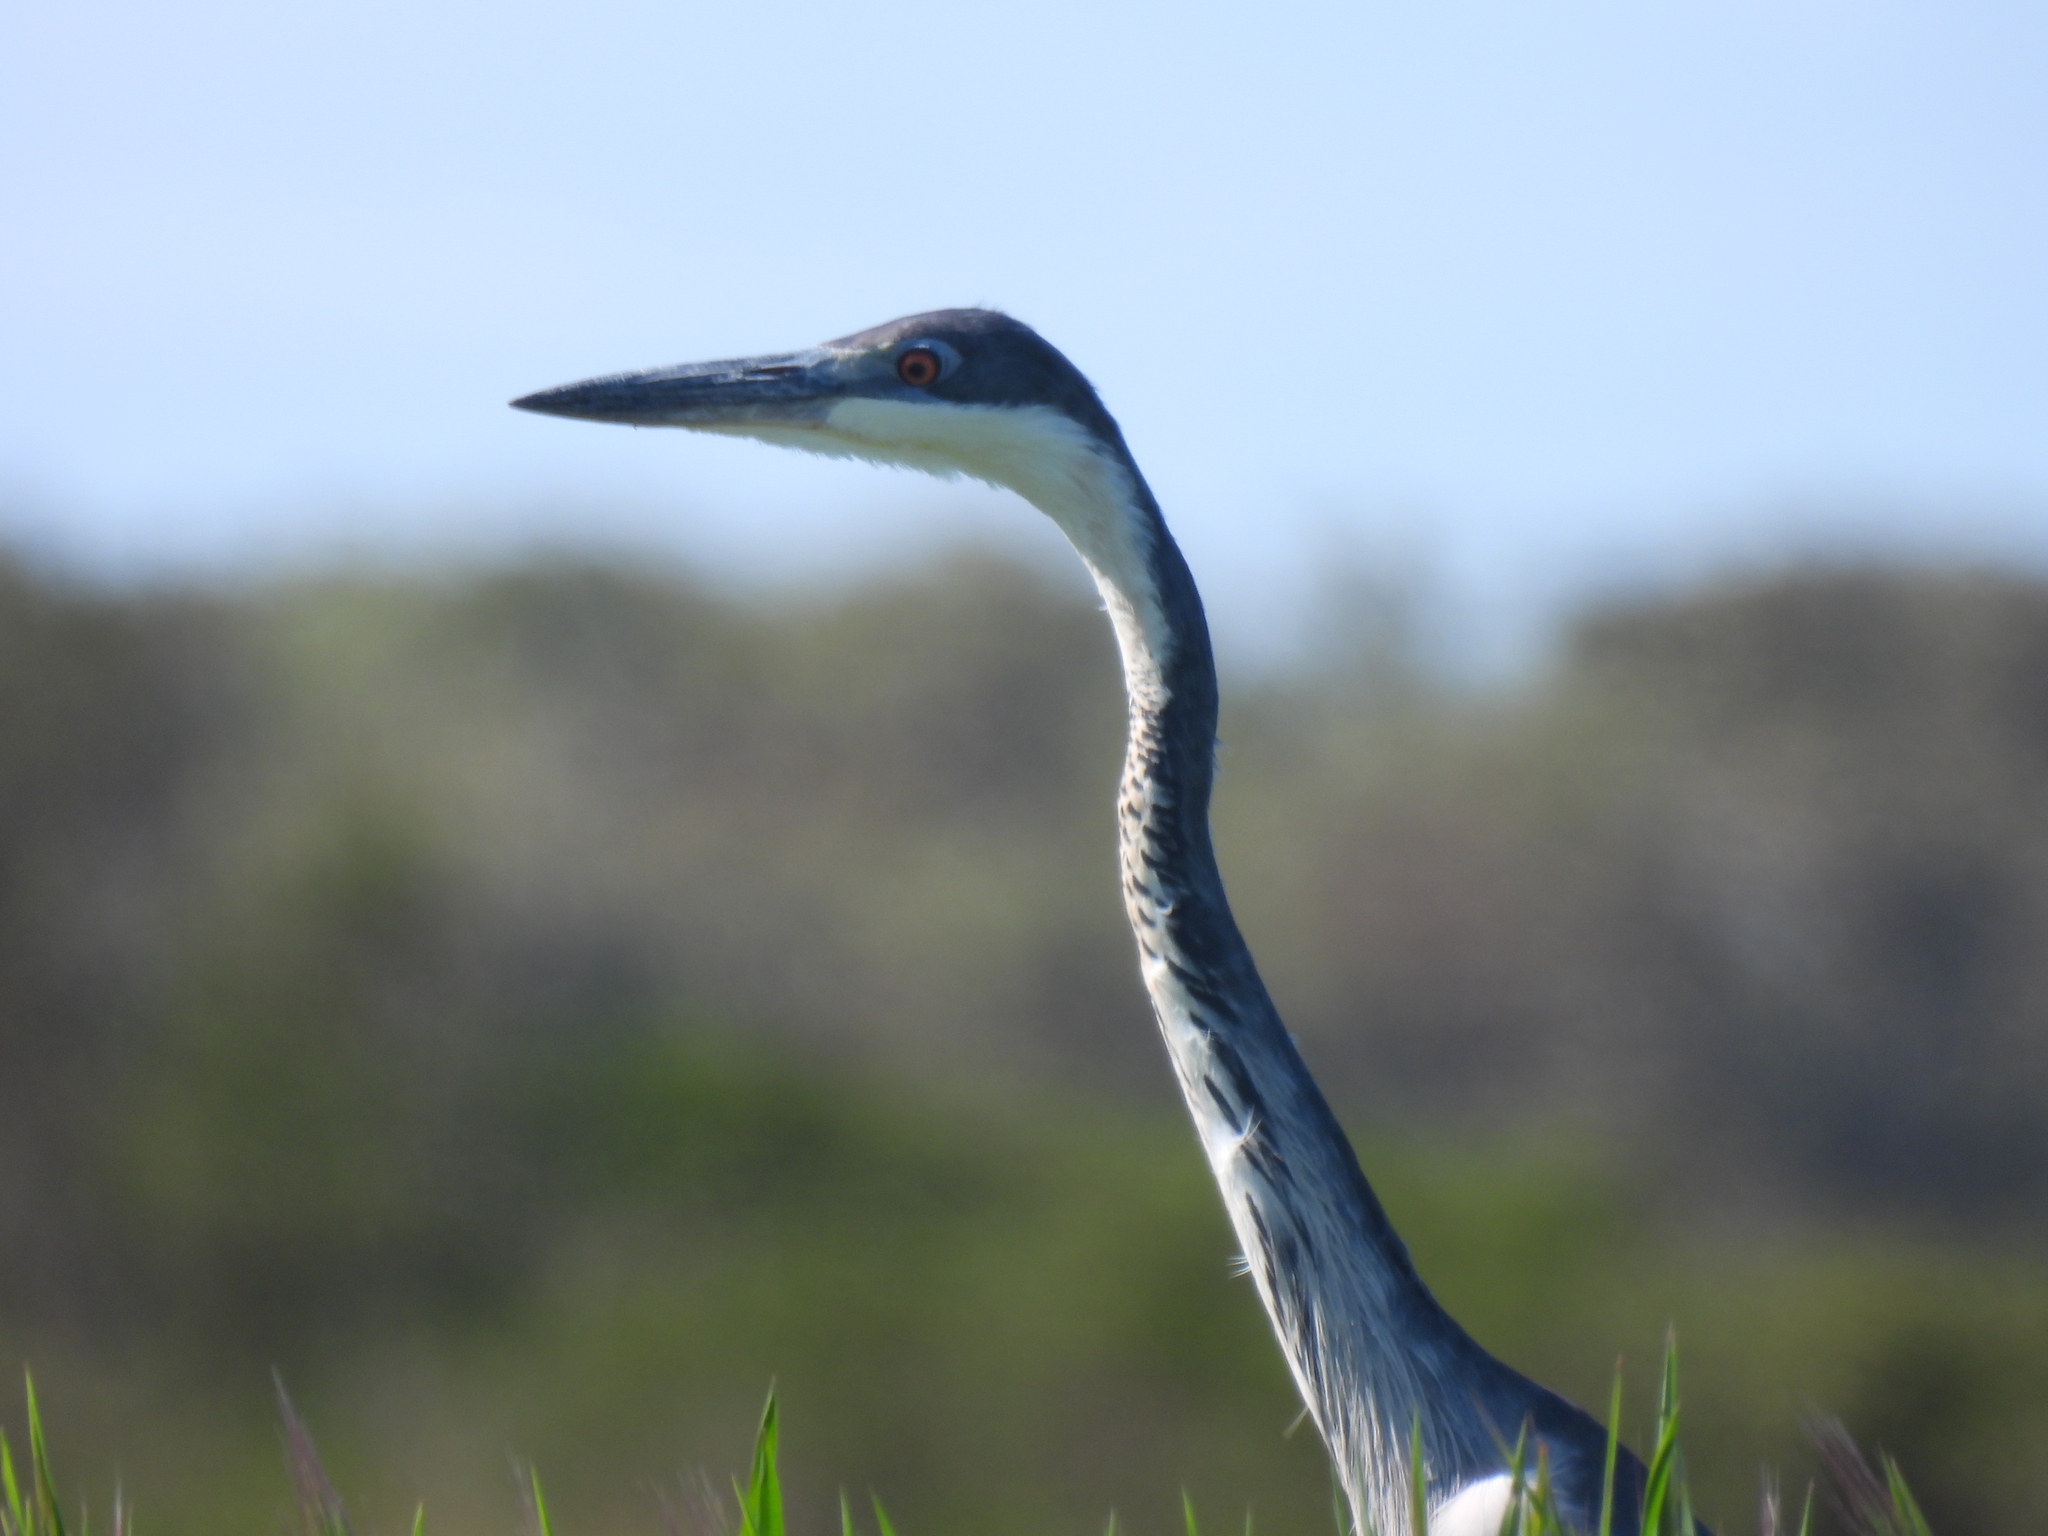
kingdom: Animalia
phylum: Chordata
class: Aves
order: Pelecaniformes
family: Ardeidae
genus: Ardea
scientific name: Ardea melanocephala
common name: Black-headed heron
